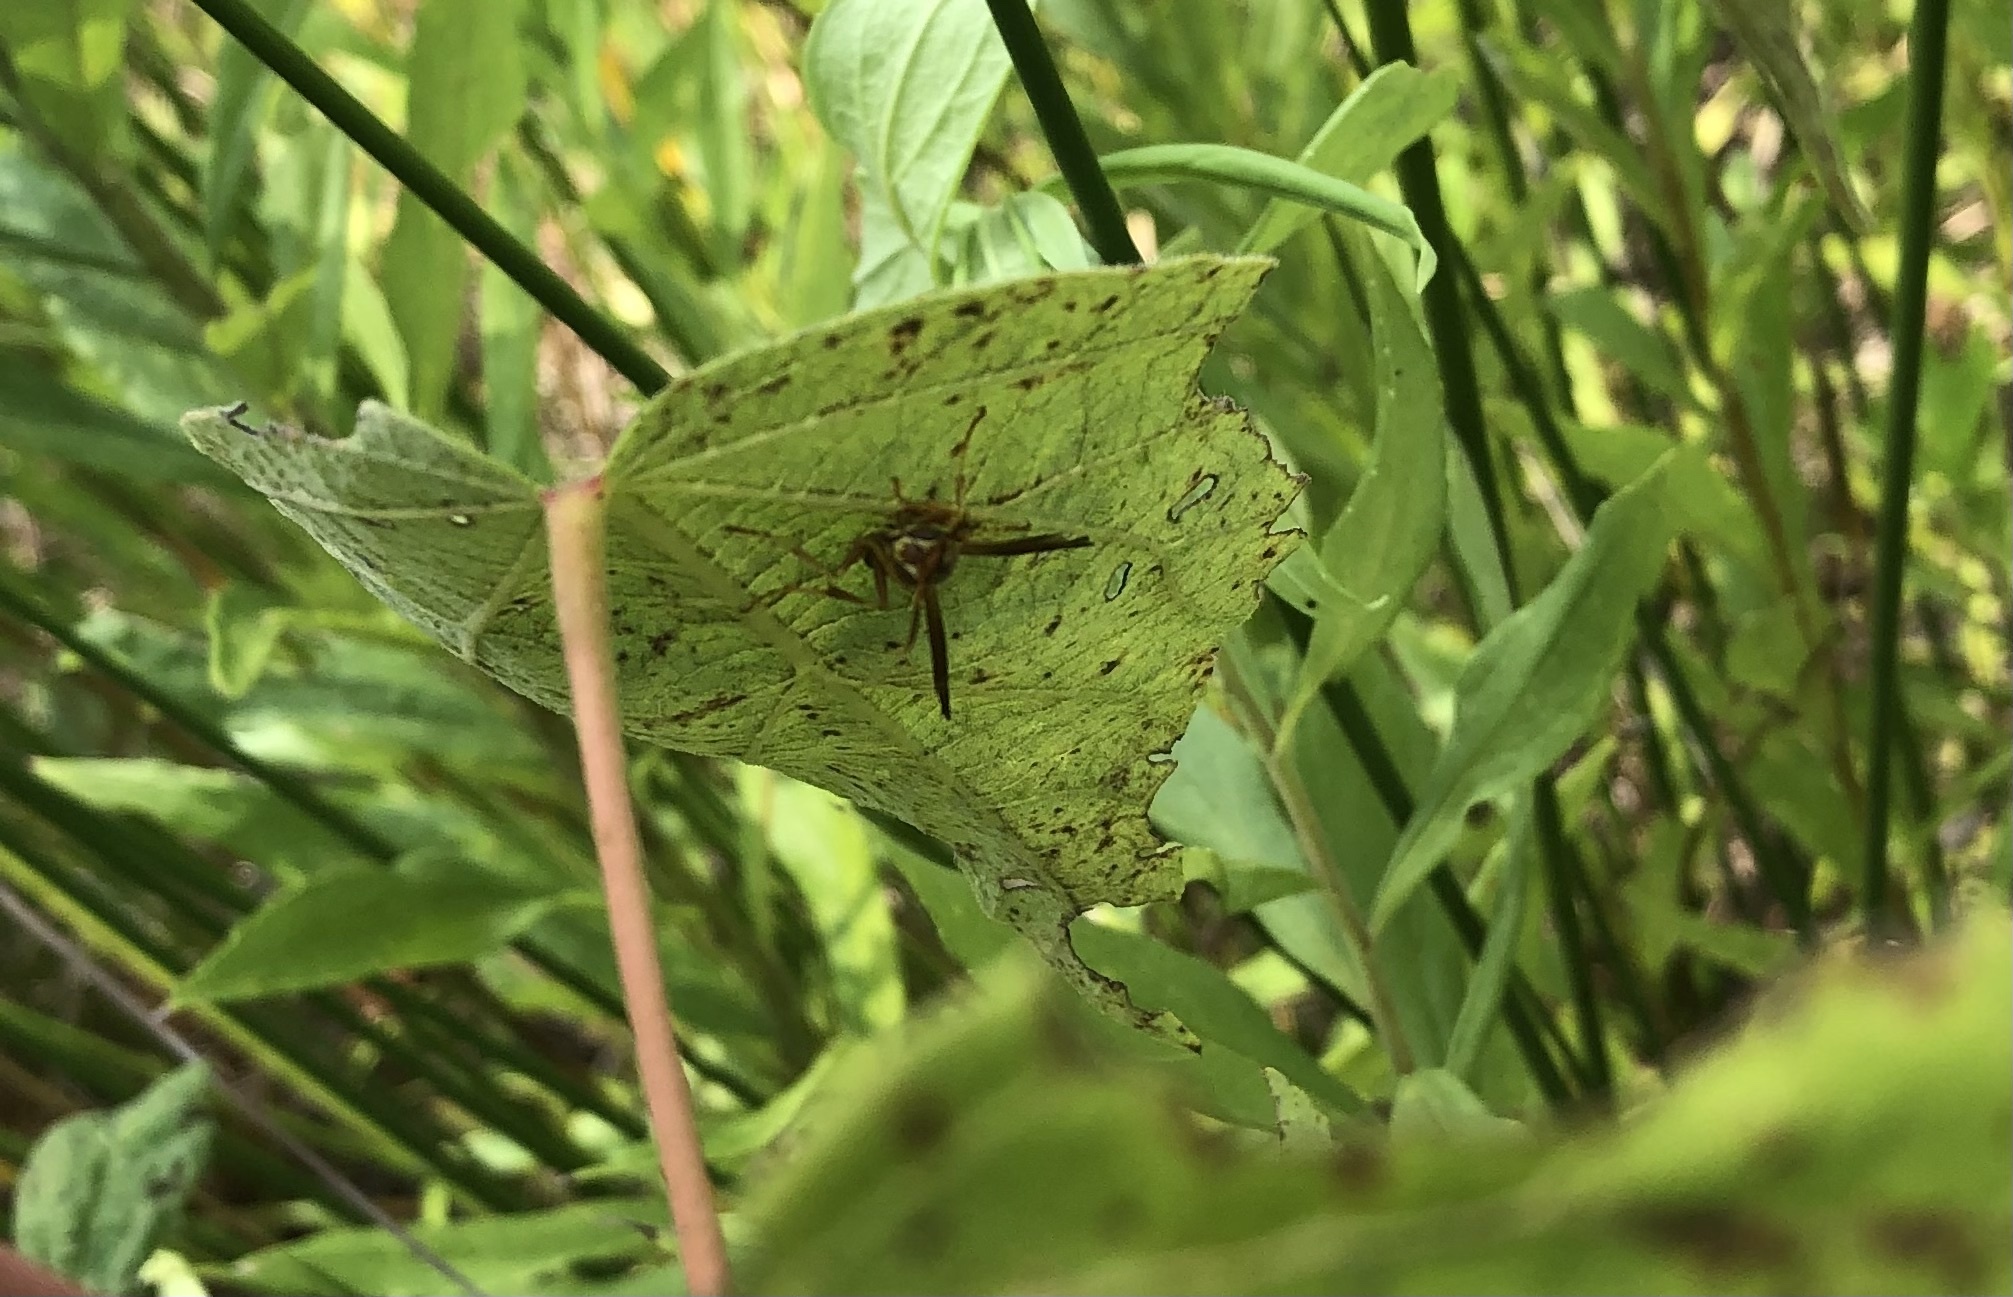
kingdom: Animalia
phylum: Arthropoda
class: Insecta
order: Hymenoptera
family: Eumenidae
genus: Polistes
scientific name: Polistes dorsalis
